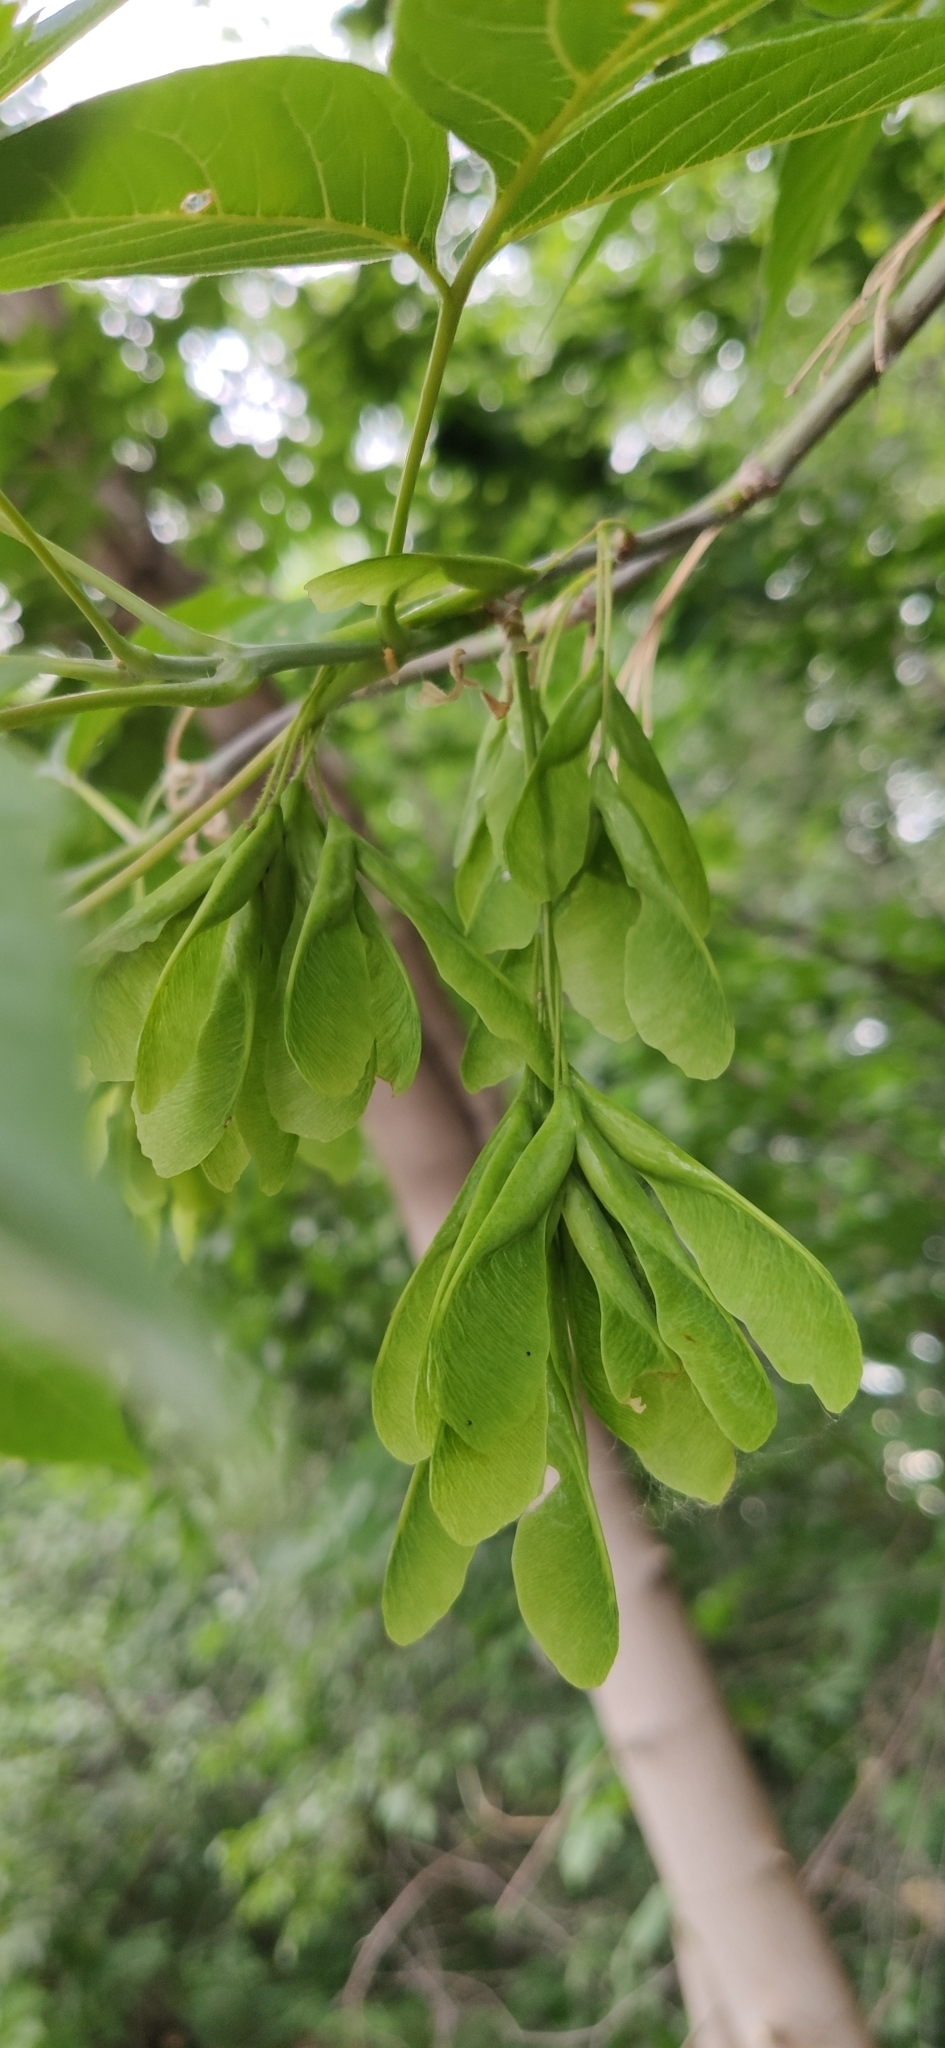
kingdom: Plantae
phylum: Tracheophyta
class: Magnoliopsida
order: Sapindales
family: Sapindaceae
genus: Acer
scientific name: Acer negundo
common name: Ashleaf maple
